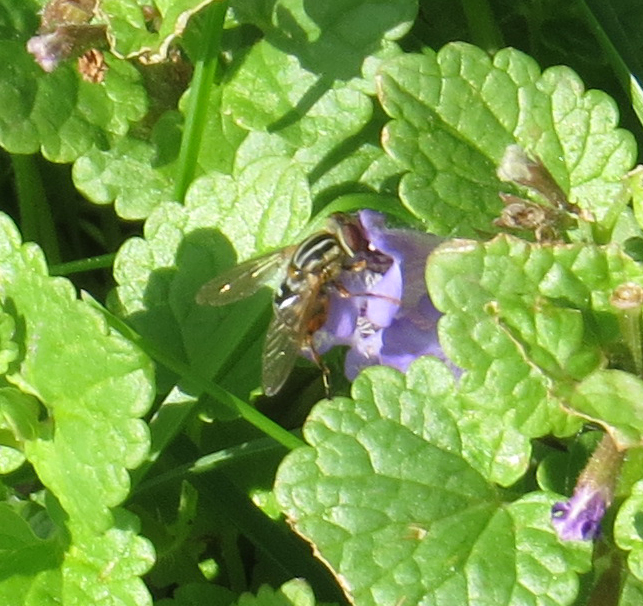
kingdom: Animalia
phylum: Arthropoda
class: Insecta
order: Diptera
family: Syrphidae
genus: Eurimyia
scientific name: Eurimyia stipatus
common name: Long-nosed swamp fly
